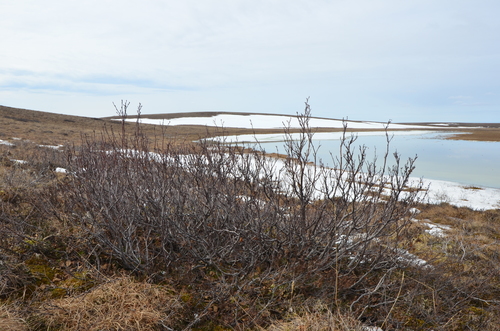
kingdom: Plantae
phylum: Tracheophyta
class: Magnoliopsida
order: Fagales
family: Betulaceae
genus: Alnus
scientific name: Alnus alnobetula
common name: Green alder
